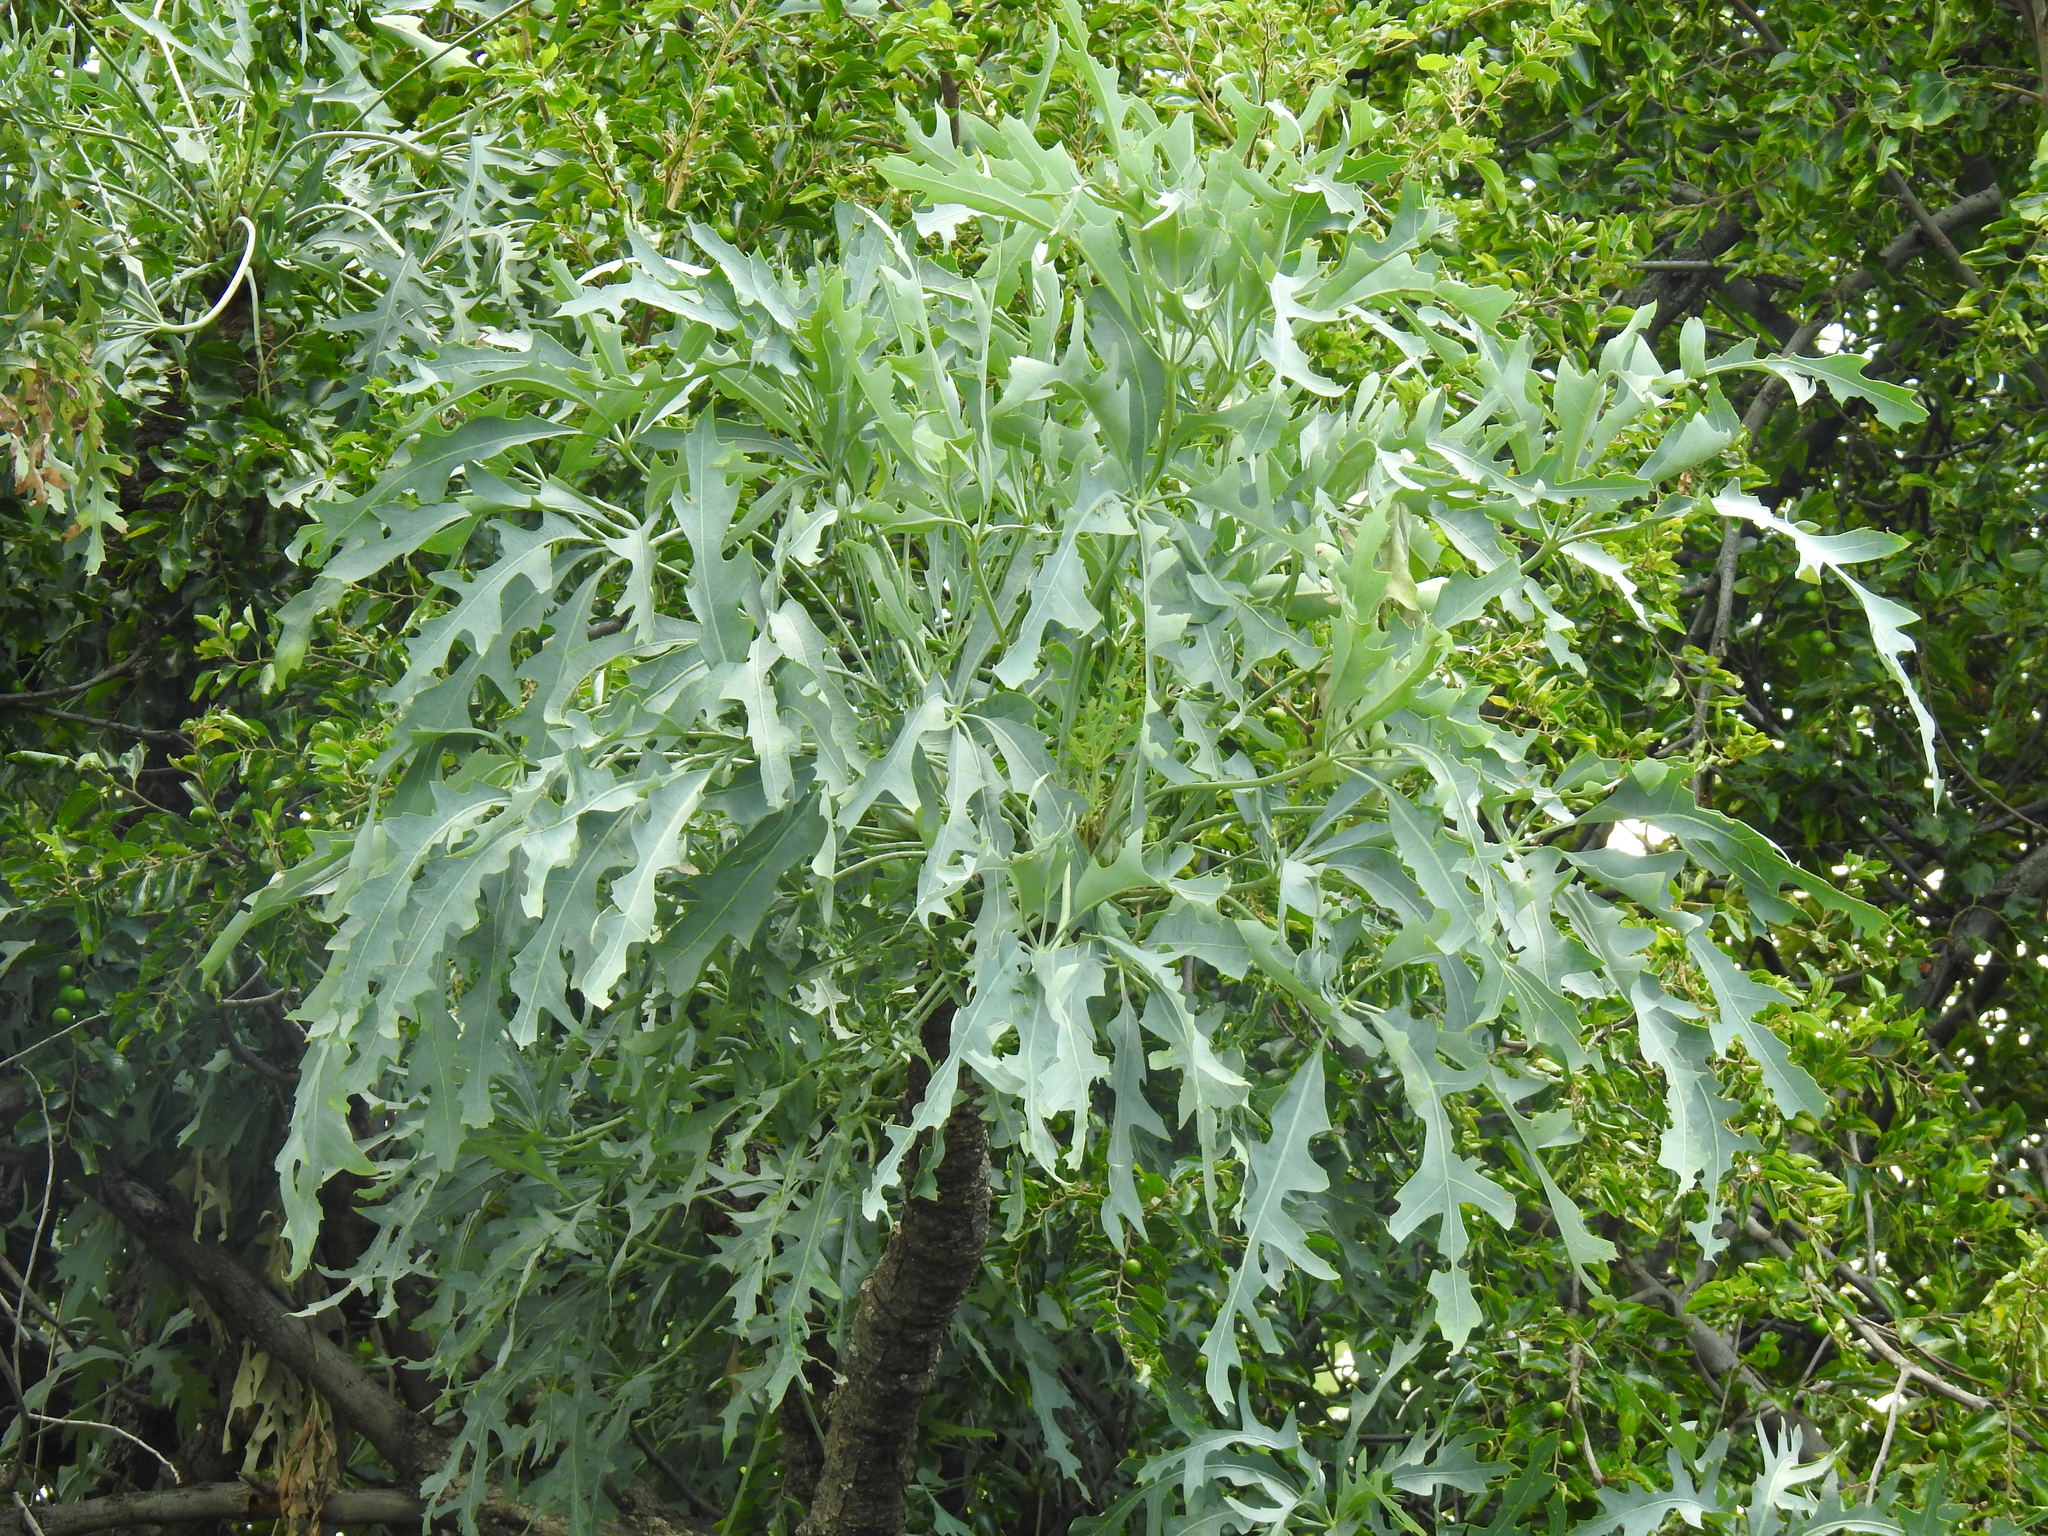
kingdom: Plantae
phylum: Tracheophyta
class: Magnoliopsida
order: Apiales
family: Araliaceae
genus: Cussonia
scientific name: Cussonia paniculata
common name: Cabbagetree
